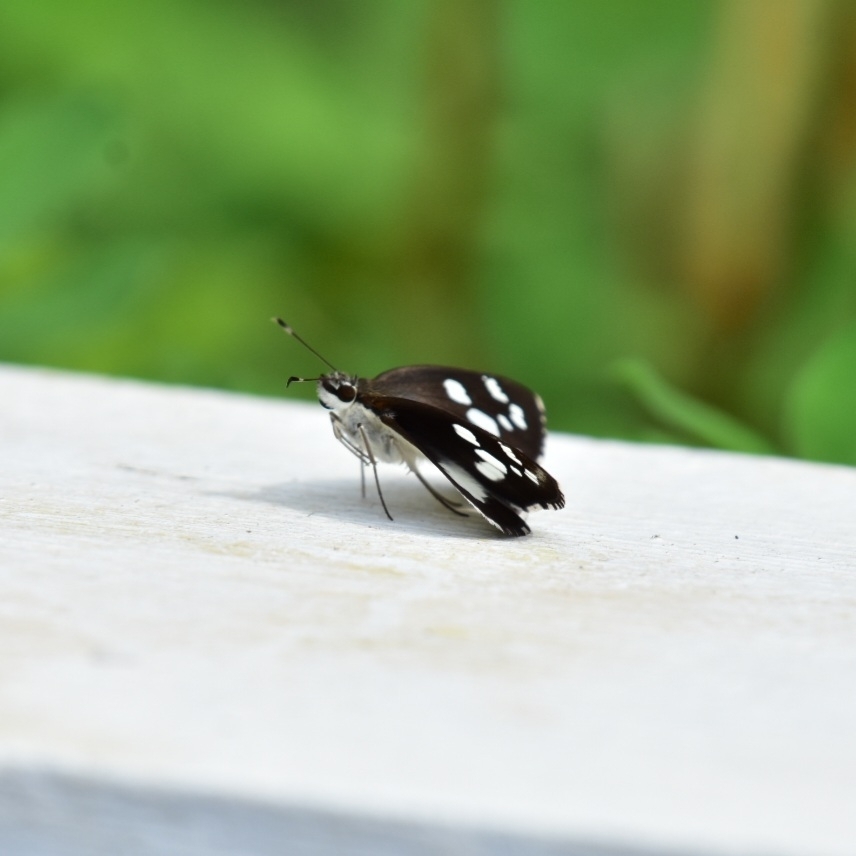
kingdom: Animalia
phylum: Arthropoda
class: Insecta
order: Lepidoptera
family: Hesperiidae
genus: Udaspes
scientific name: Udaspes folus
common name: Grass demon
